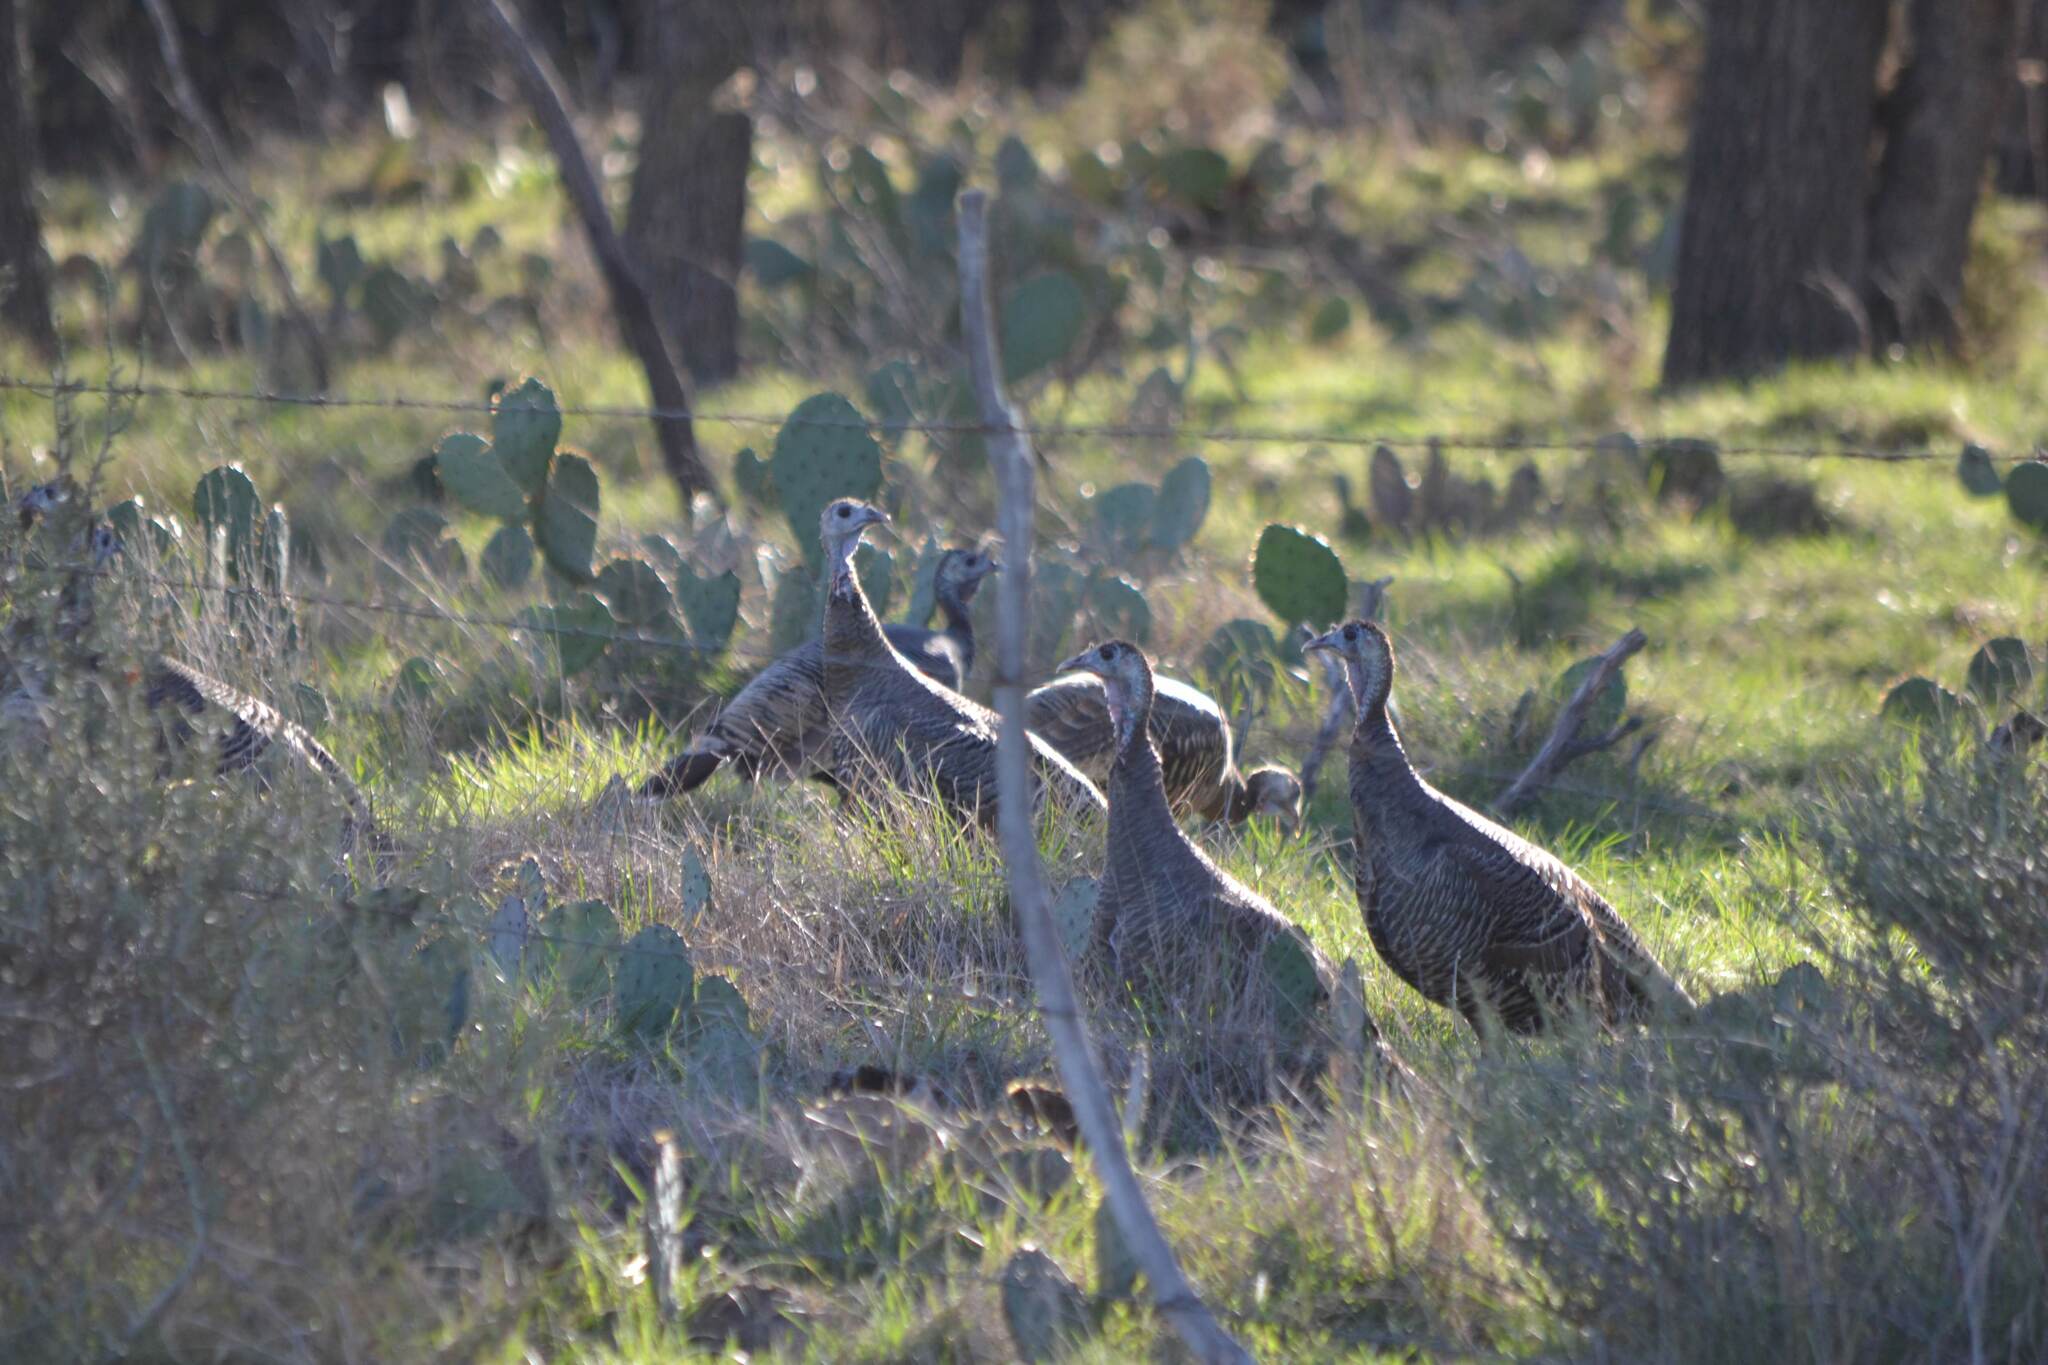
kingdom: Animalia
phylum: Chordata
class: Aves
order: Galliformes
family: Phasianidae
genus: Meleagris
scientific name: Meleagris gallopavo
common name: Wild turkey
